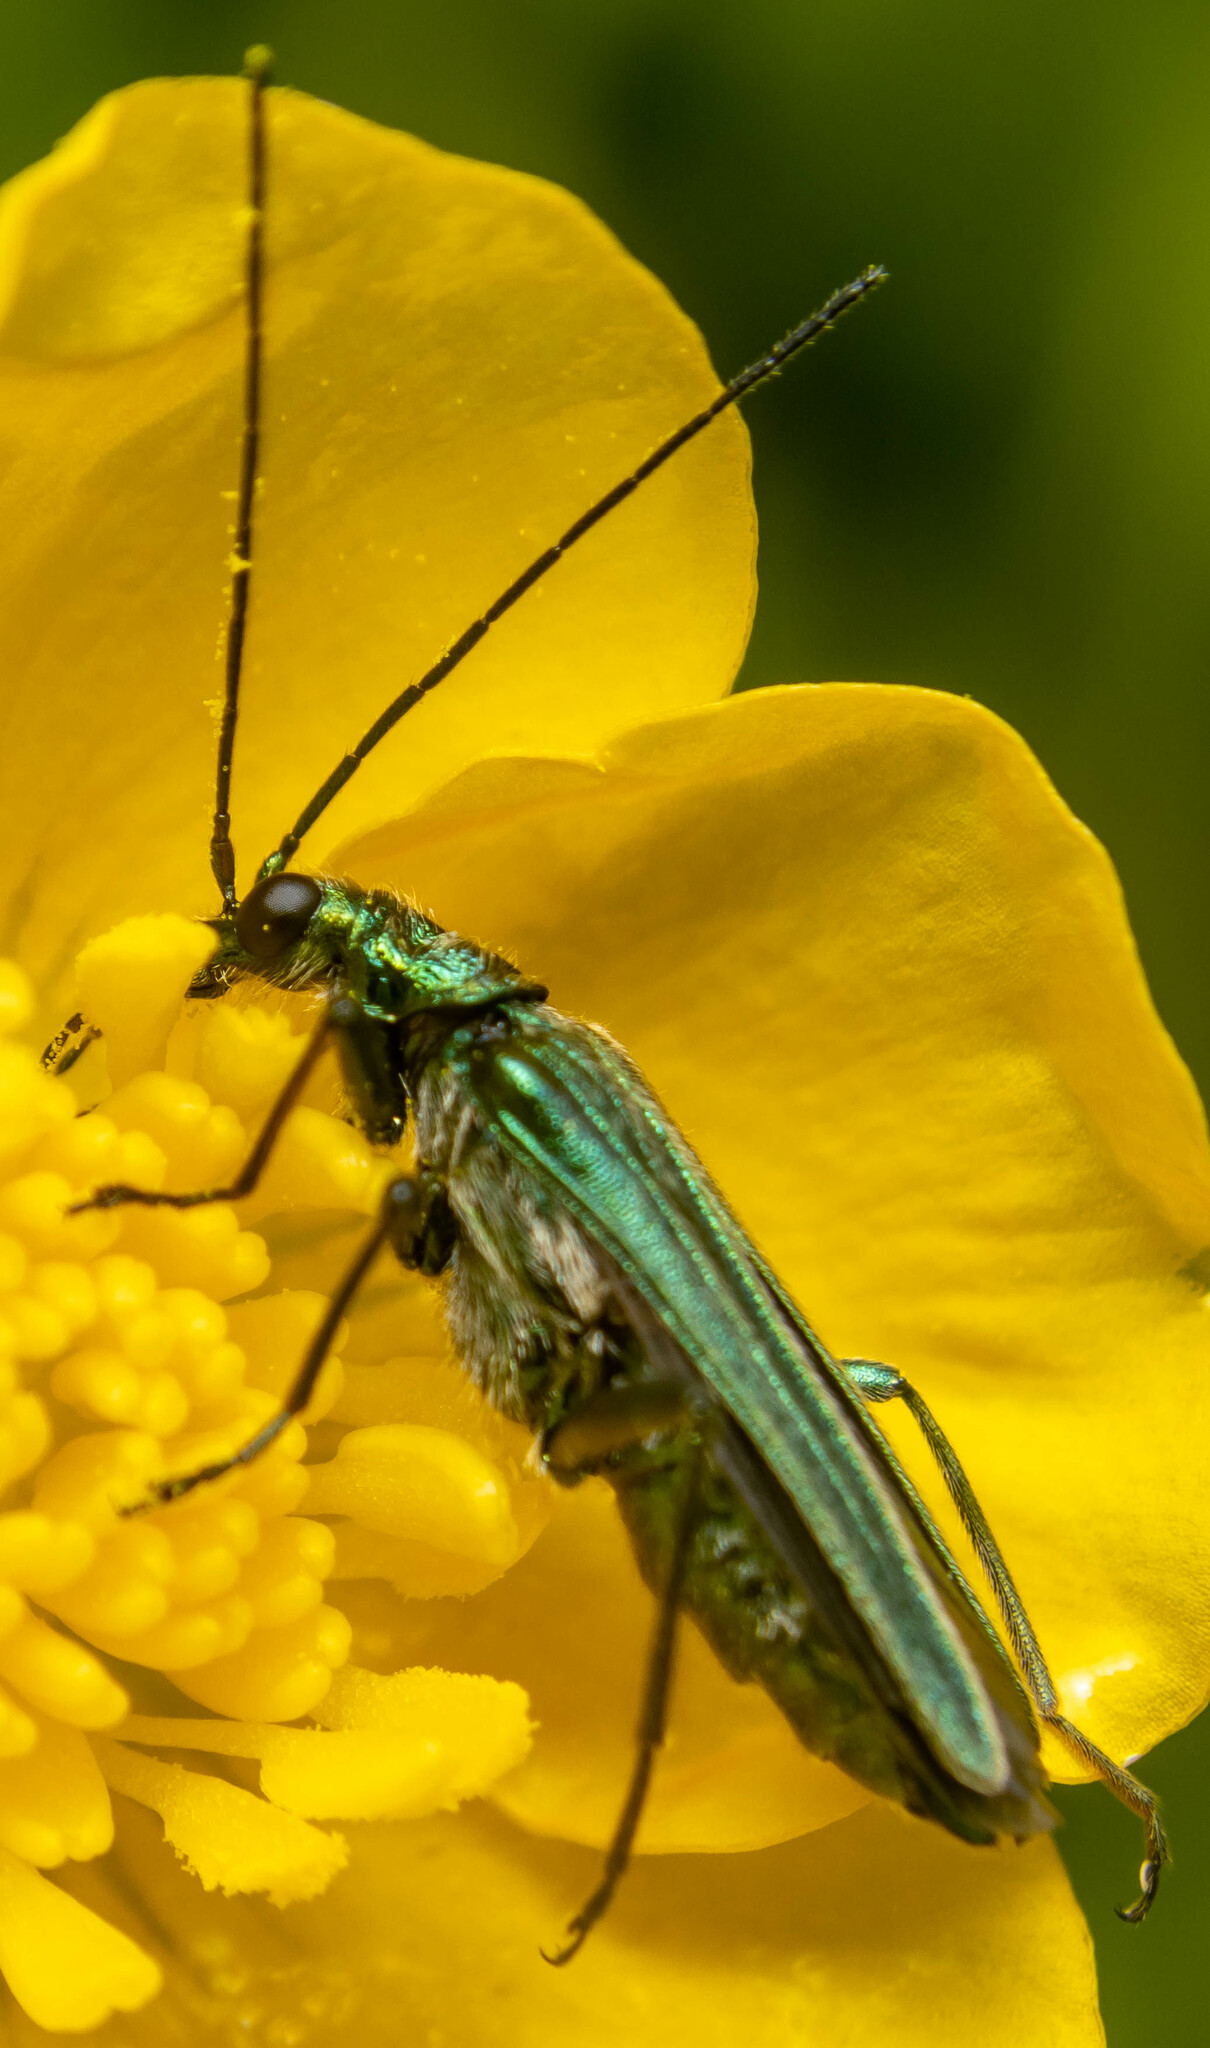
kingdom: Animalia
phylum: Arthropoda
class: Insecta
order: Coleoptera
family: Oedemeridae
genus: Oedemera
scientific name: Oedemera nobilis
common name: Swollen-thighed beetle
